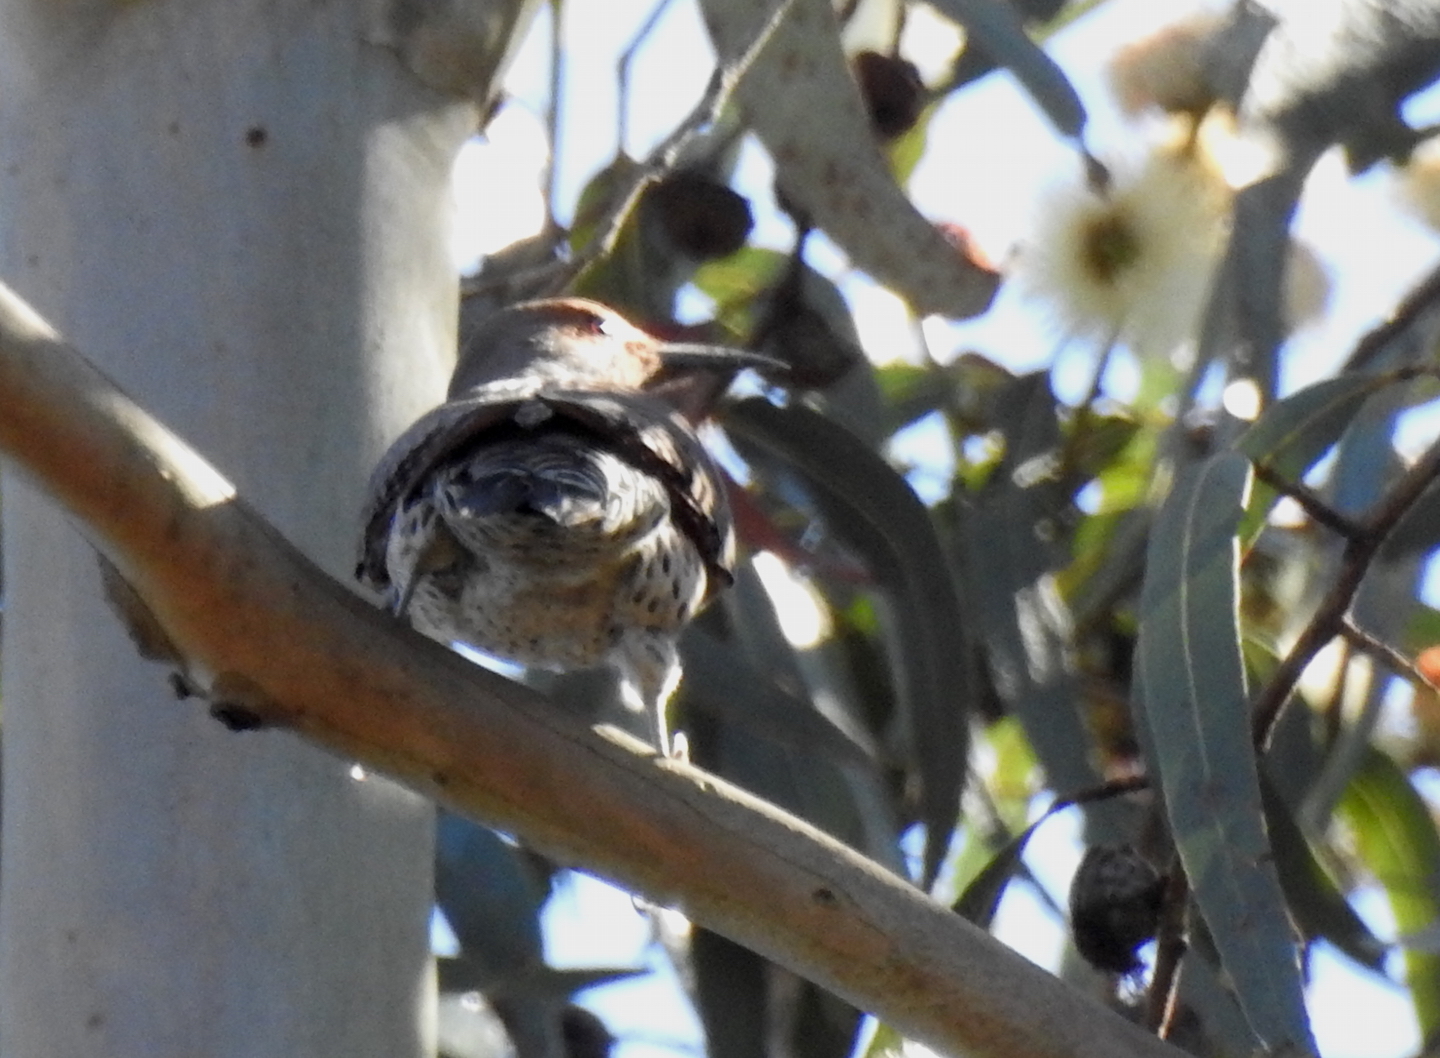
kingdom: Animalia
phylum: Chordata
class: Aves
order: Piciformes
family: Picidae
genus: Colaptes
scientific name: Colaptes auratus
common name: Northern flicker
